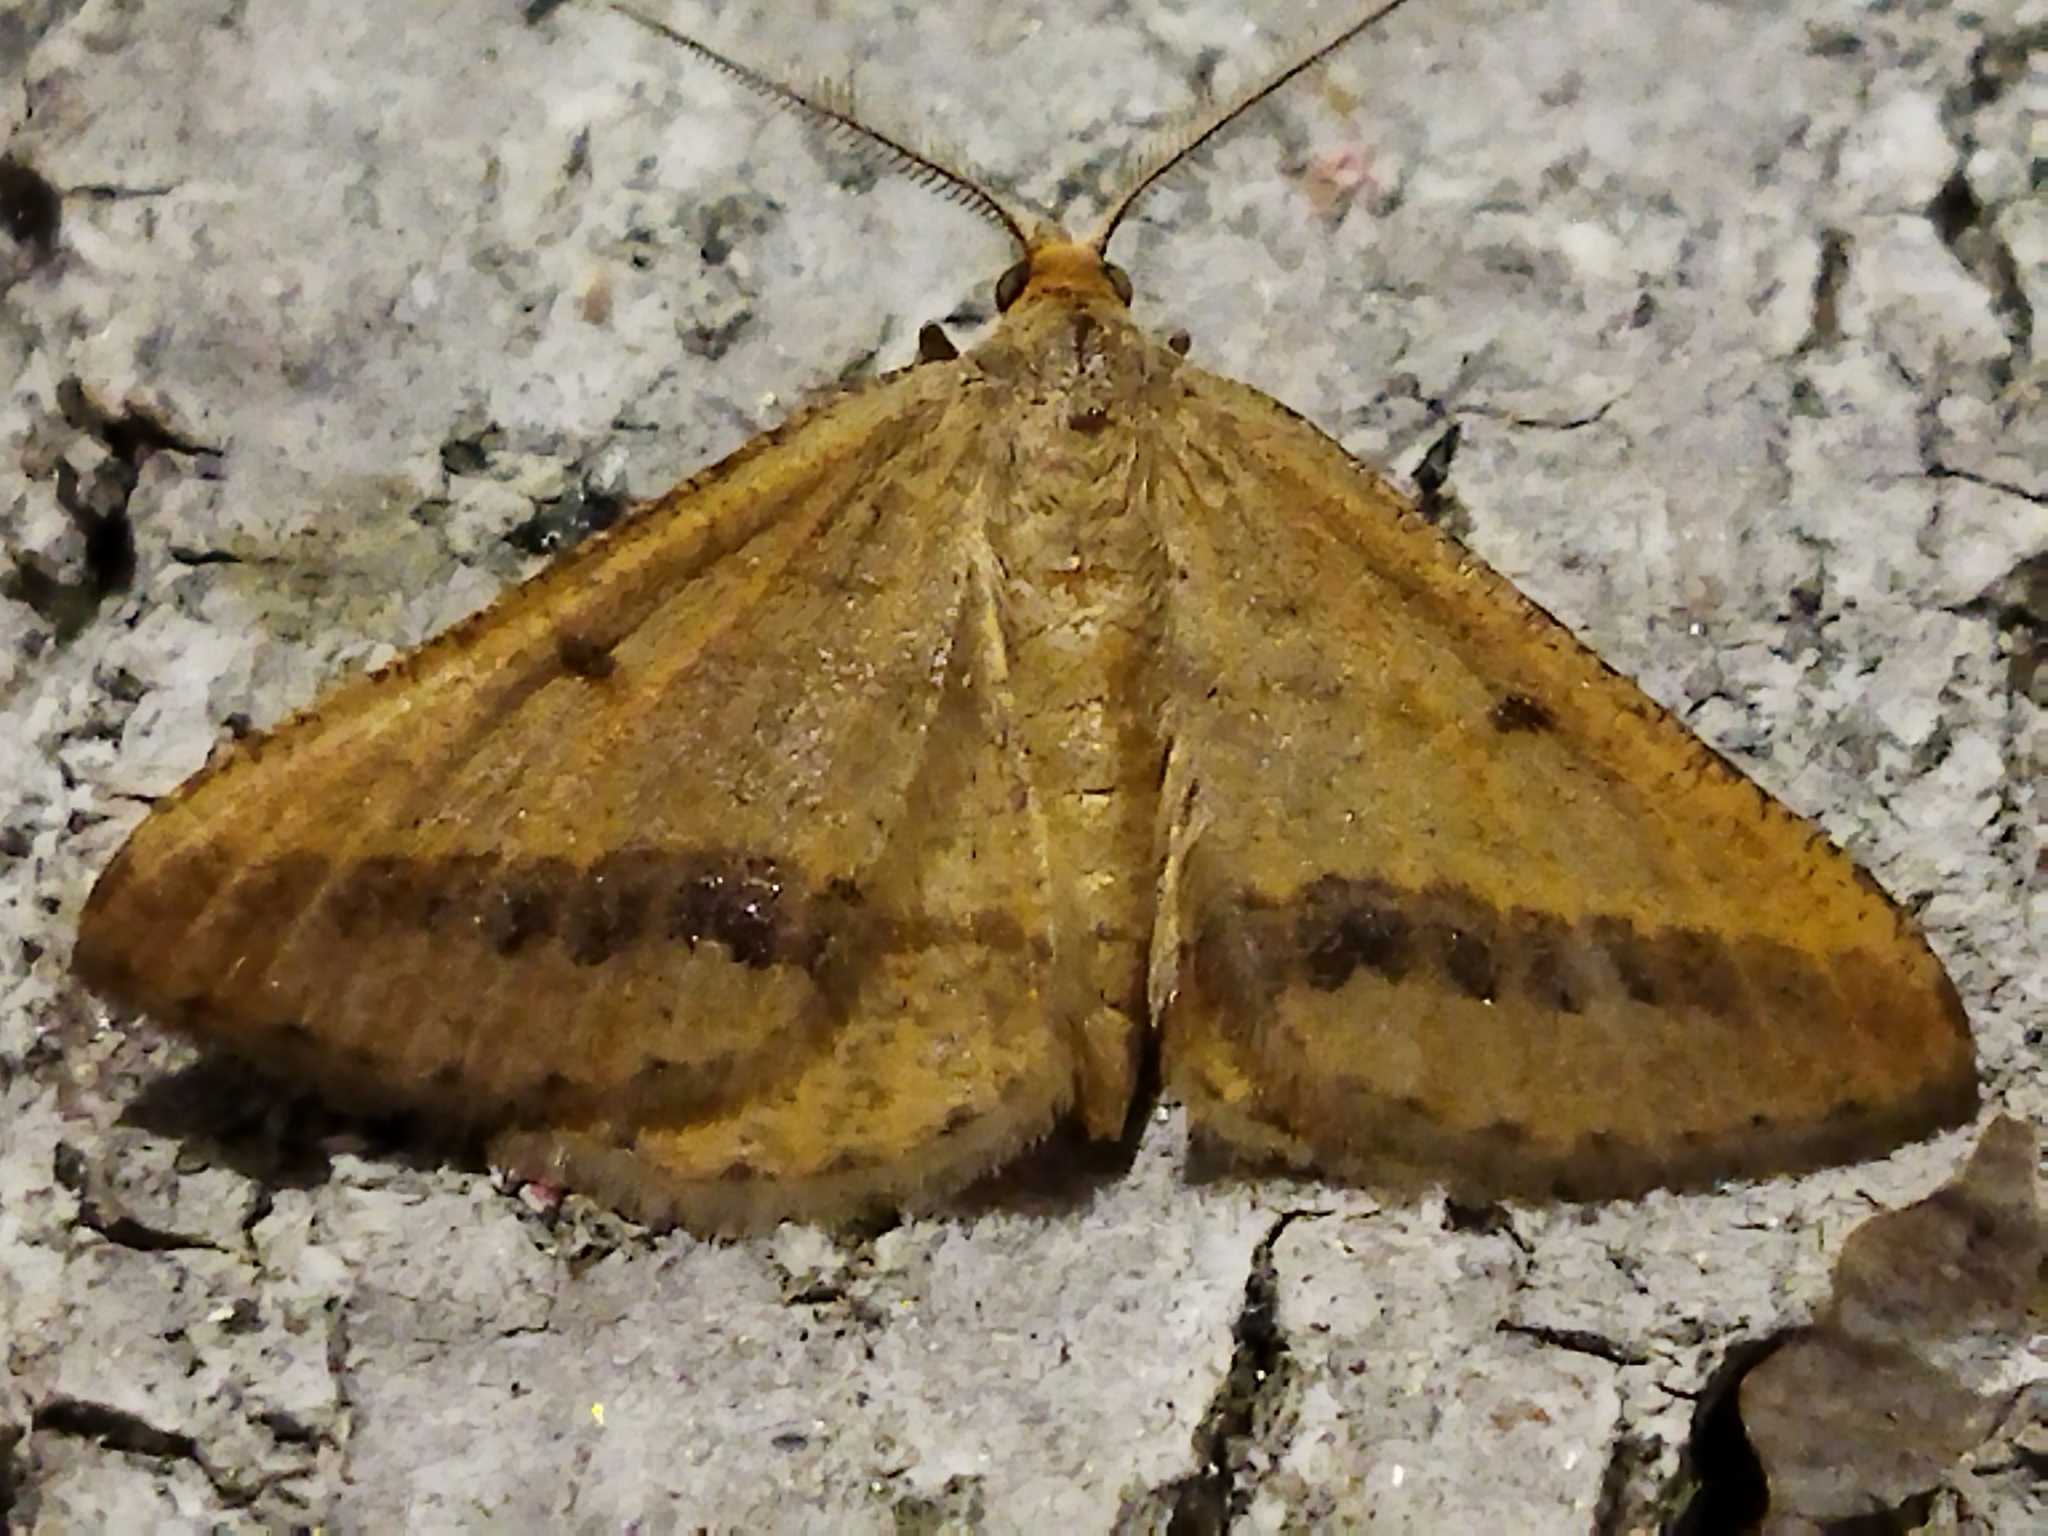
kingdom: Animalia
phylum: Arthropoda
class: Insecta
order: Lepidoptera
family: Geometridae
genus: Tephrina
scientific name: Tephrina arenacearia
